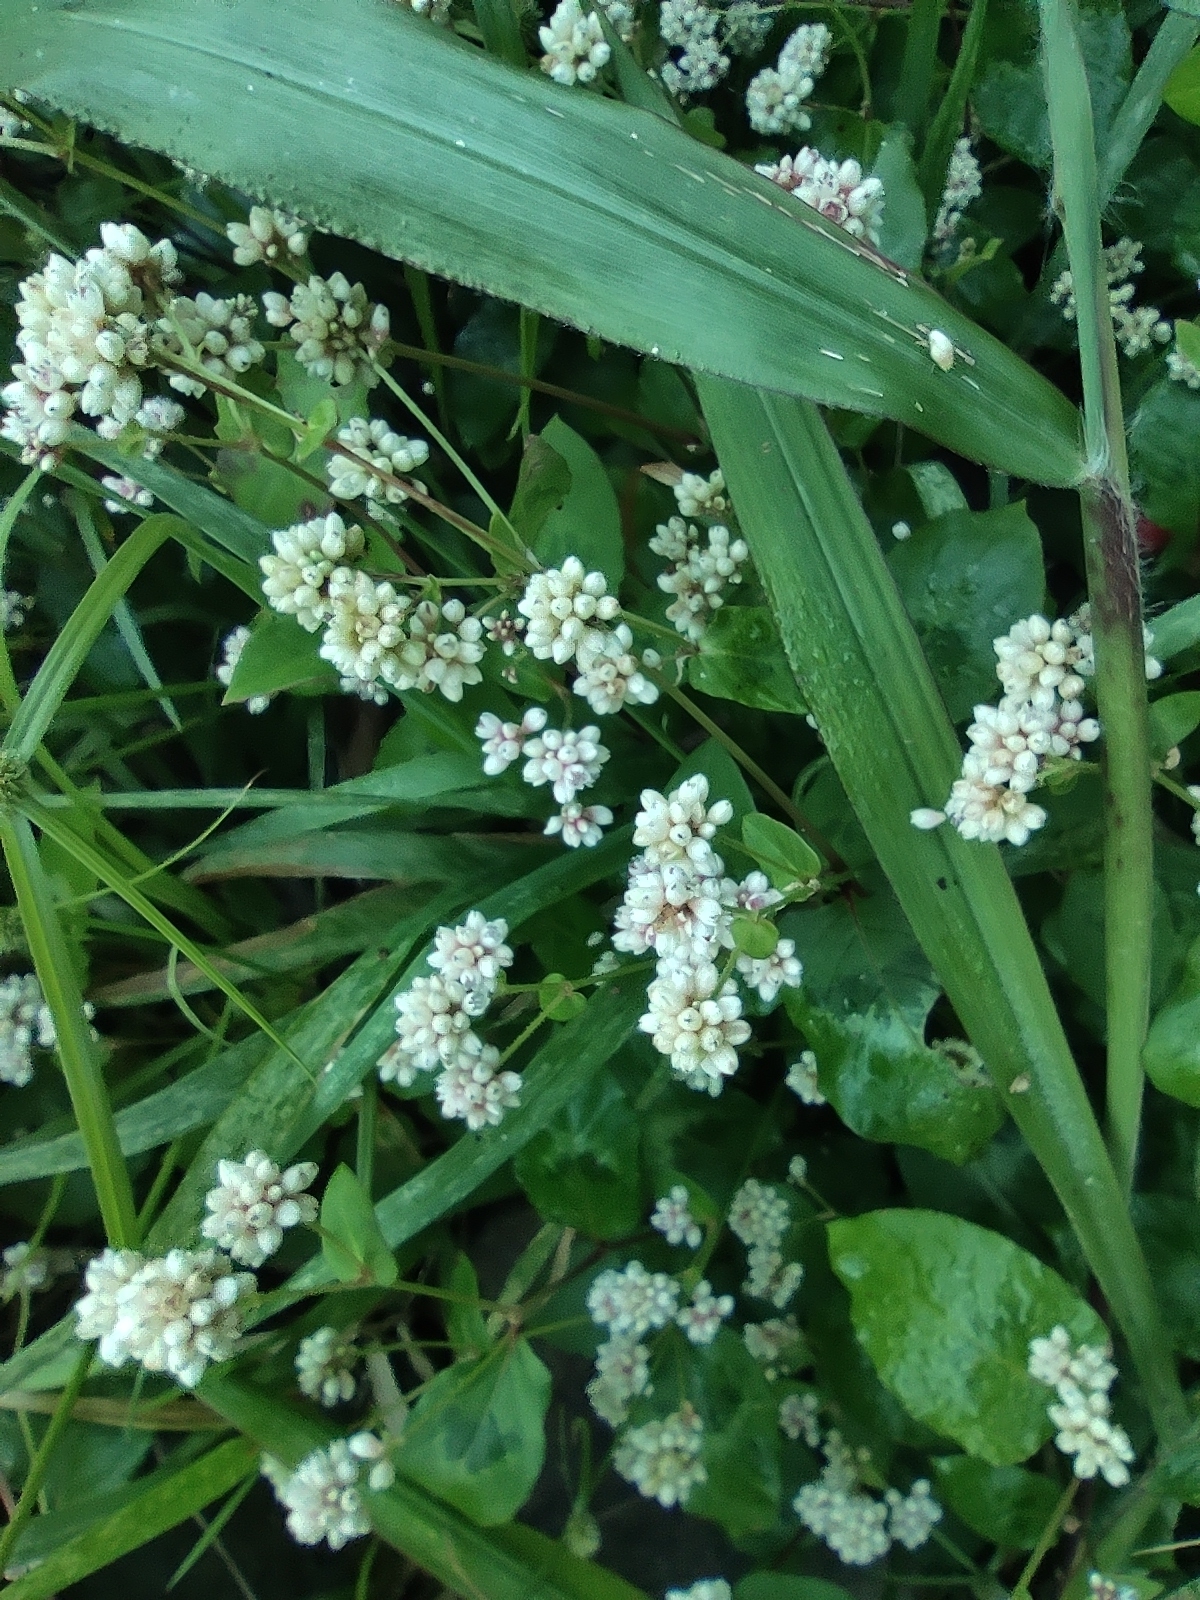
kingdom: Plantae
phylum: Tracheophyta
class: Magnoliopsida
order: Caryophyllales
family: Polygonaceae
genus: Persicaria
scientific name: Persicaria chinensis
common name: Chinese knotweed
